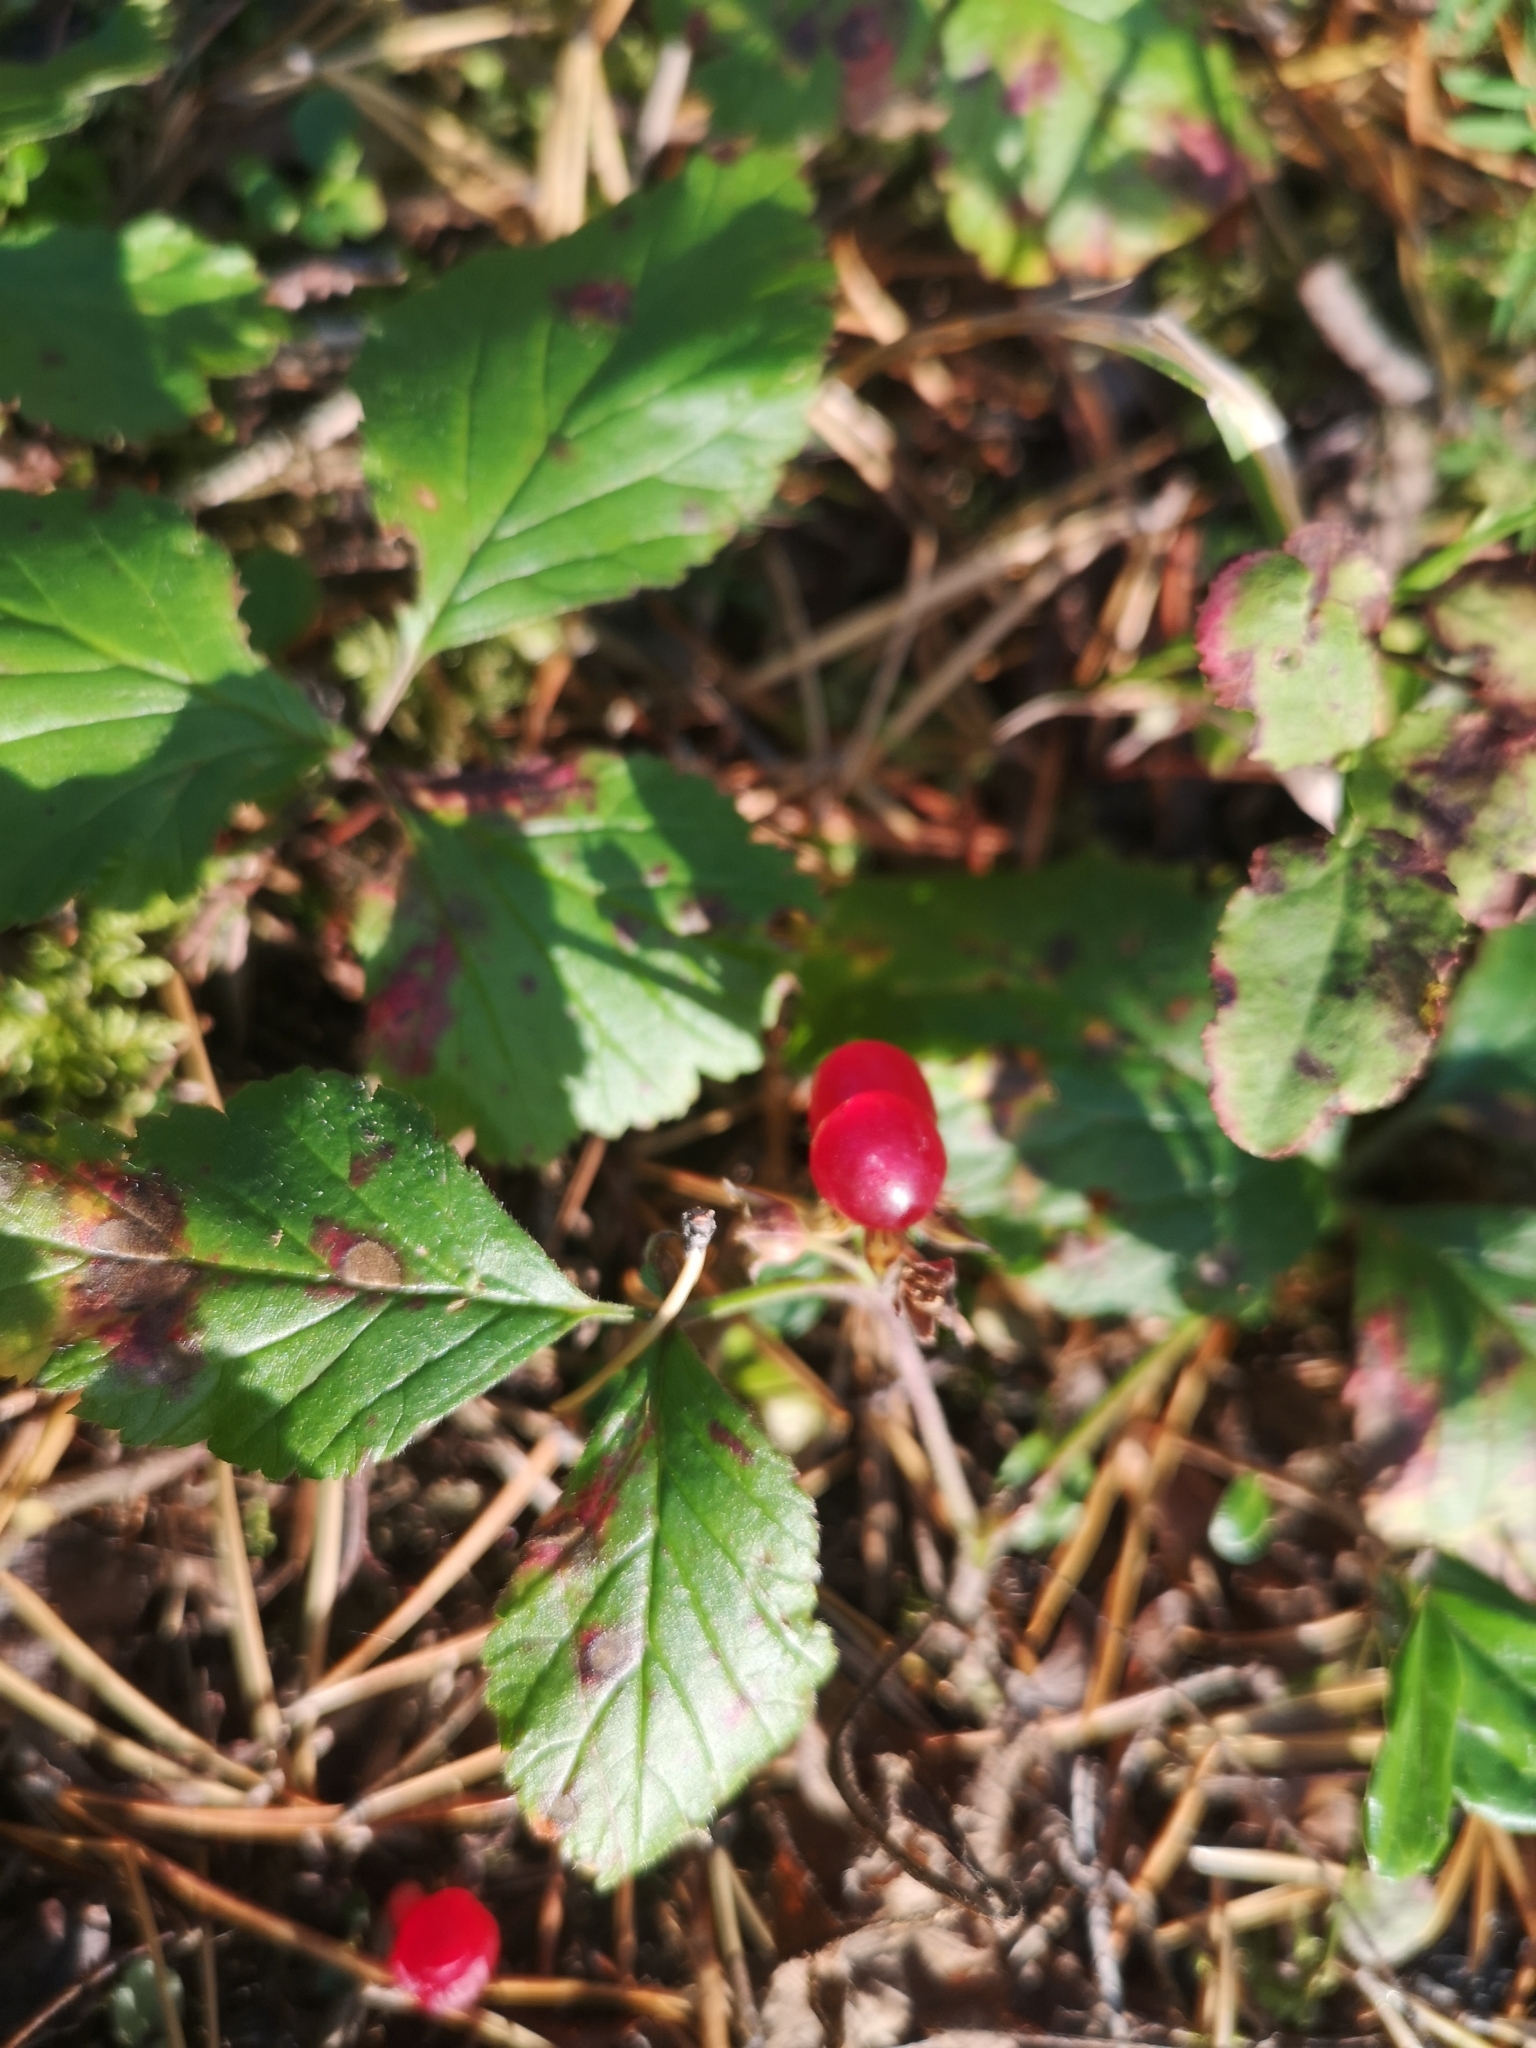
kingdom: Plantae
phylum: Tracheophyta
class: Magnoliopsida
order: Rosales
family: Rosaceae
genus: Rubus
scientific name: Rubus saxatilis
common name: Stone bramble
